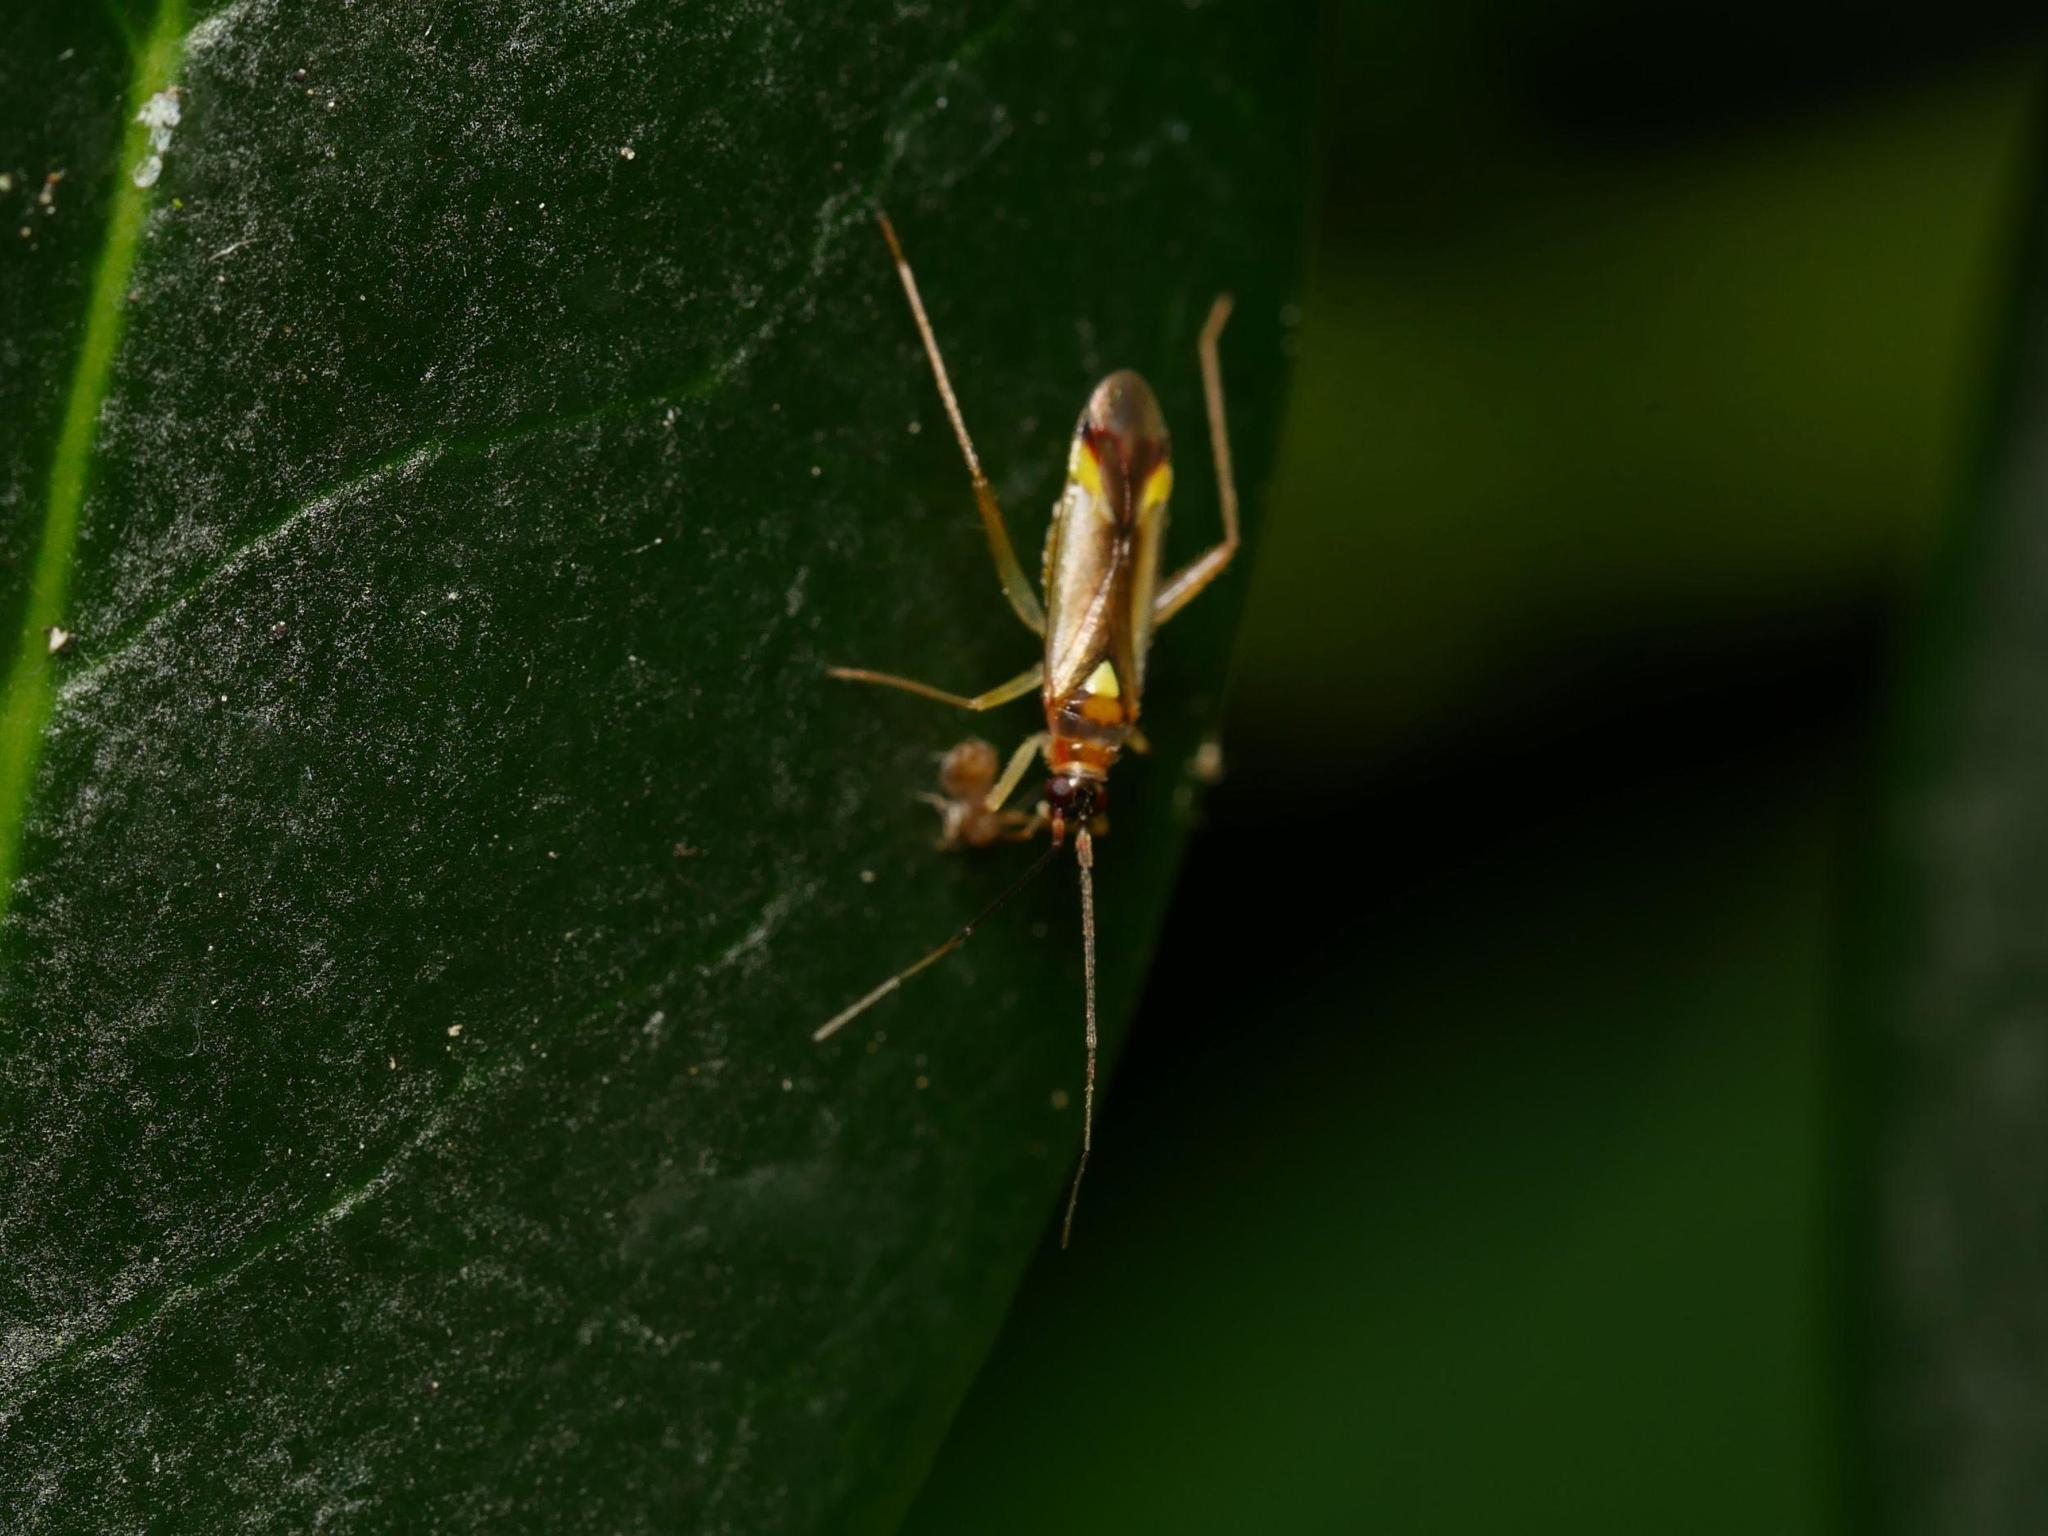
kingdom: Animalia
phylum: Arthropoda
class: Insecta
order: Hemiptera
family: Miridae
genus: Campyloneura
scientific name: Campyloneura virgula
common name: Predatory bug
